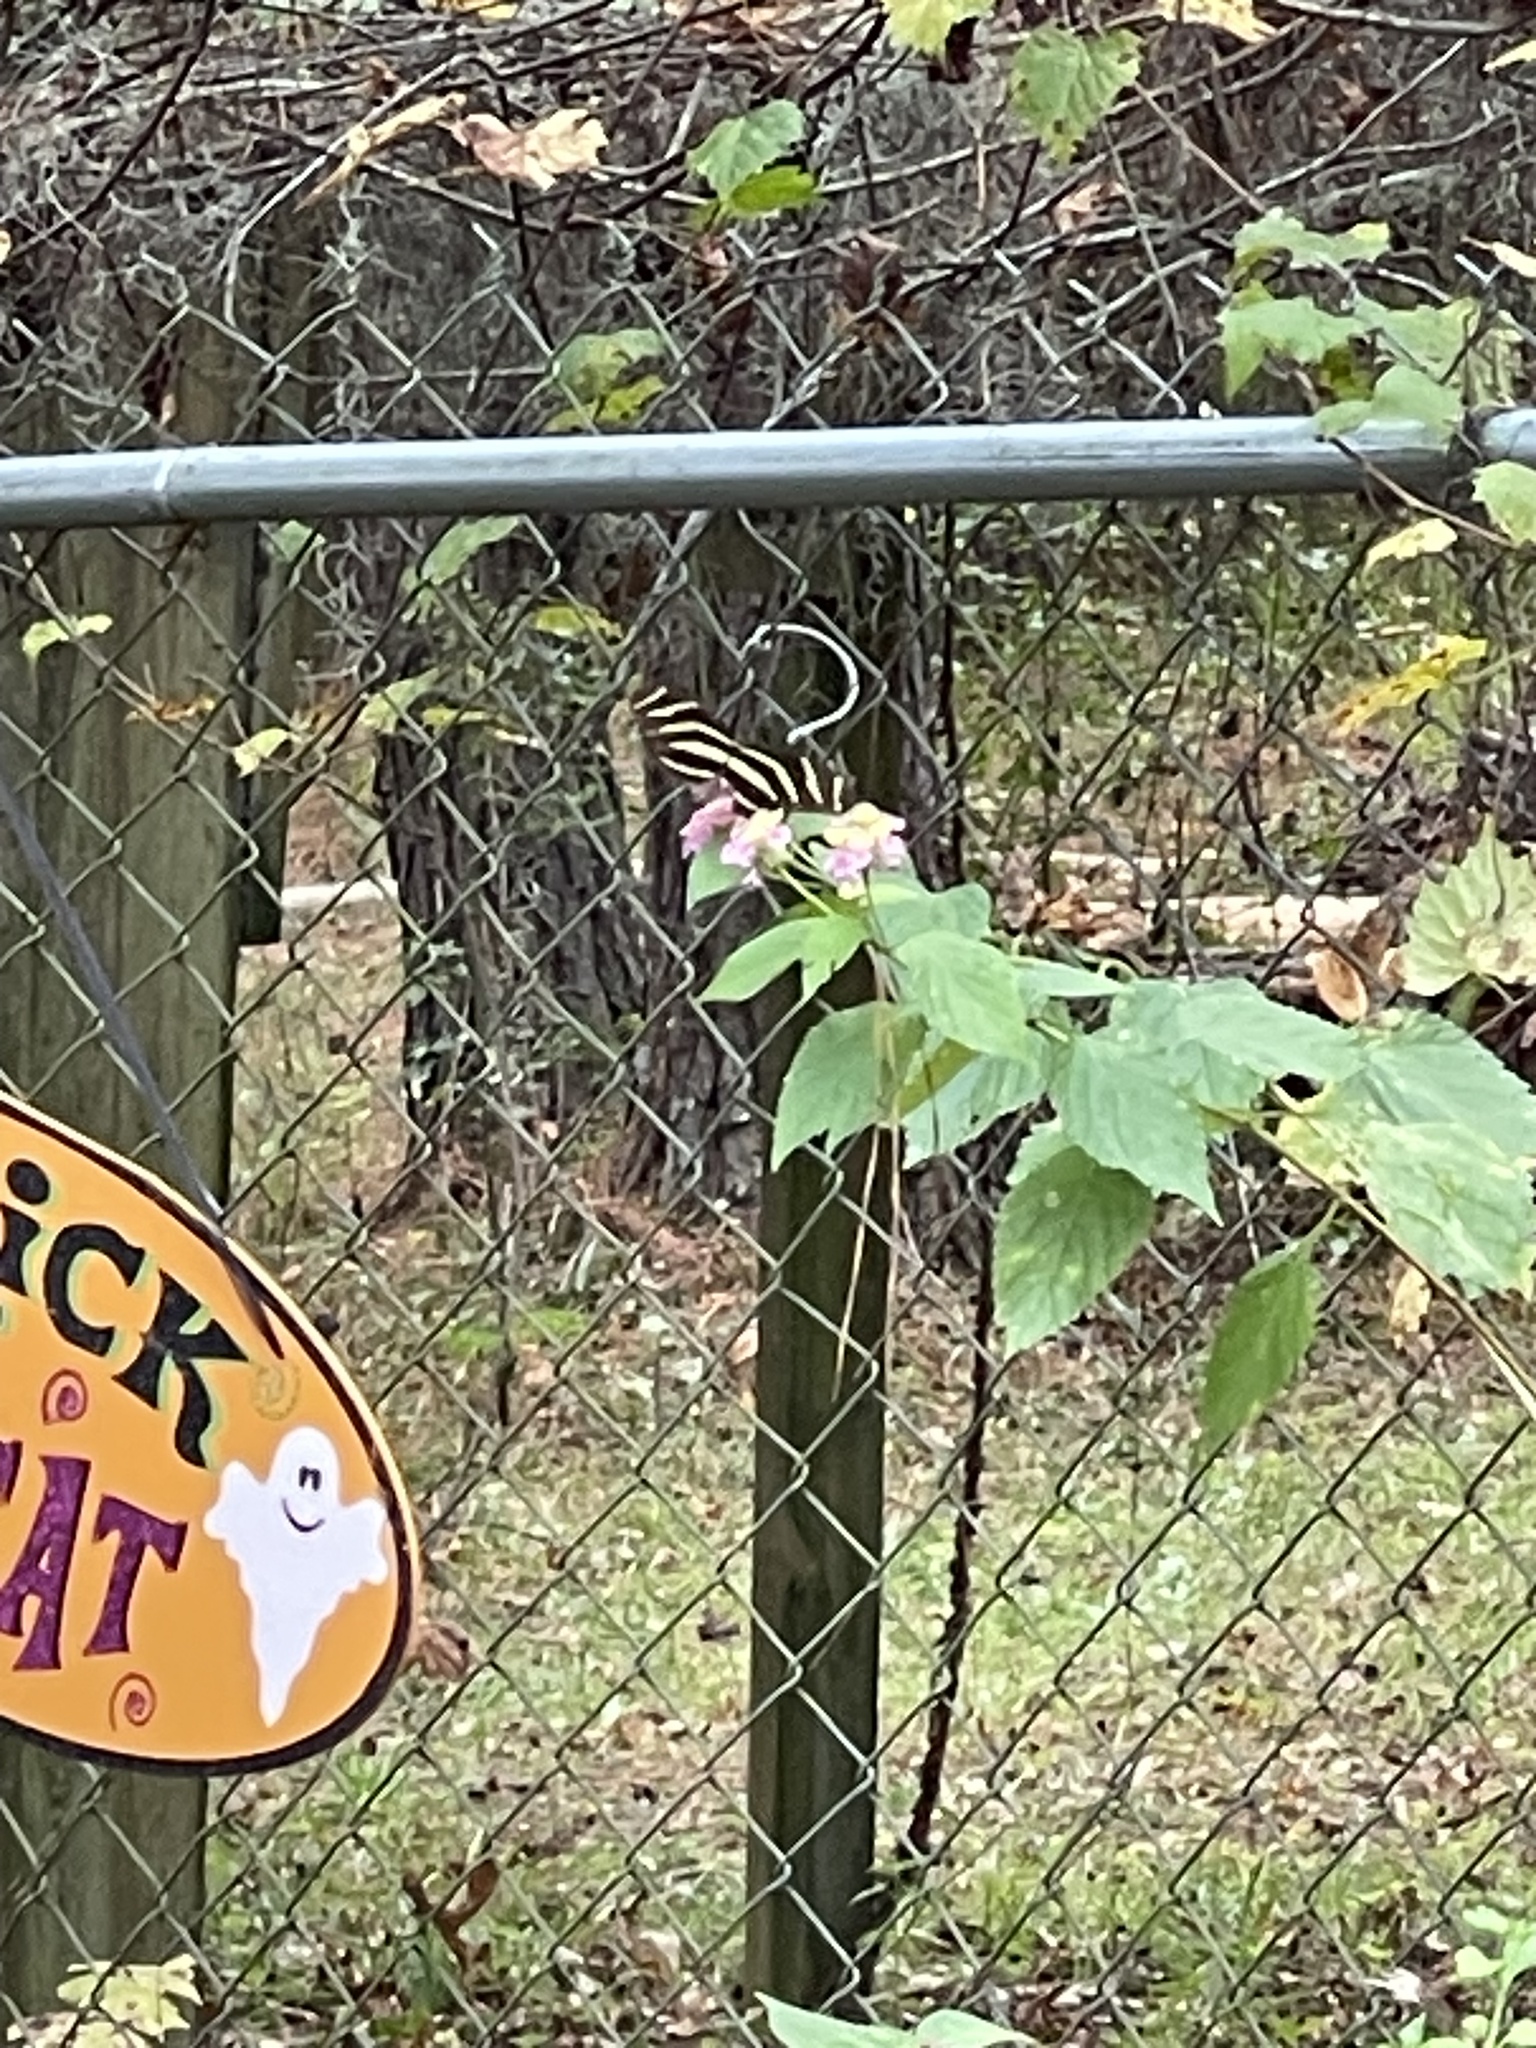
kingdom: Animalia
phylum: Arthropoda
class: Insecta
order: Lepidoptera
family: Nymphalidae
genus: Heliconius
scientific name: Heliconius charithonia
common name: Zebra long wing
